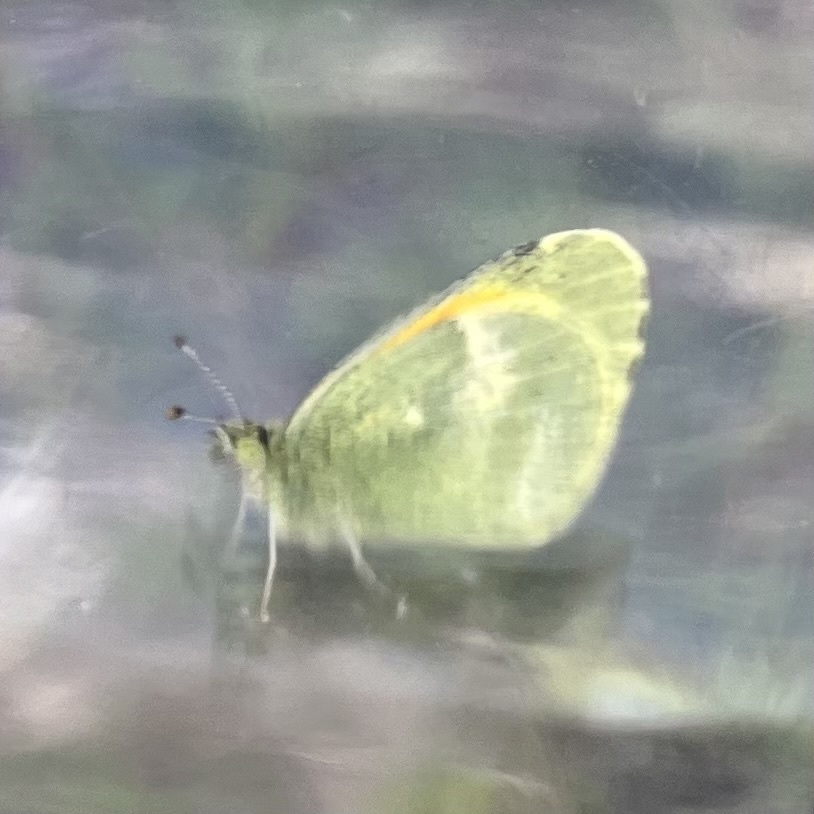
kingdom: Animalia
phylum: Arthropoda
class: Insecta
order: Lepidoptera
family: Pieridae
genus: Nathalis
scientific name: Nathalis iole
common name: Dainty sulphur
